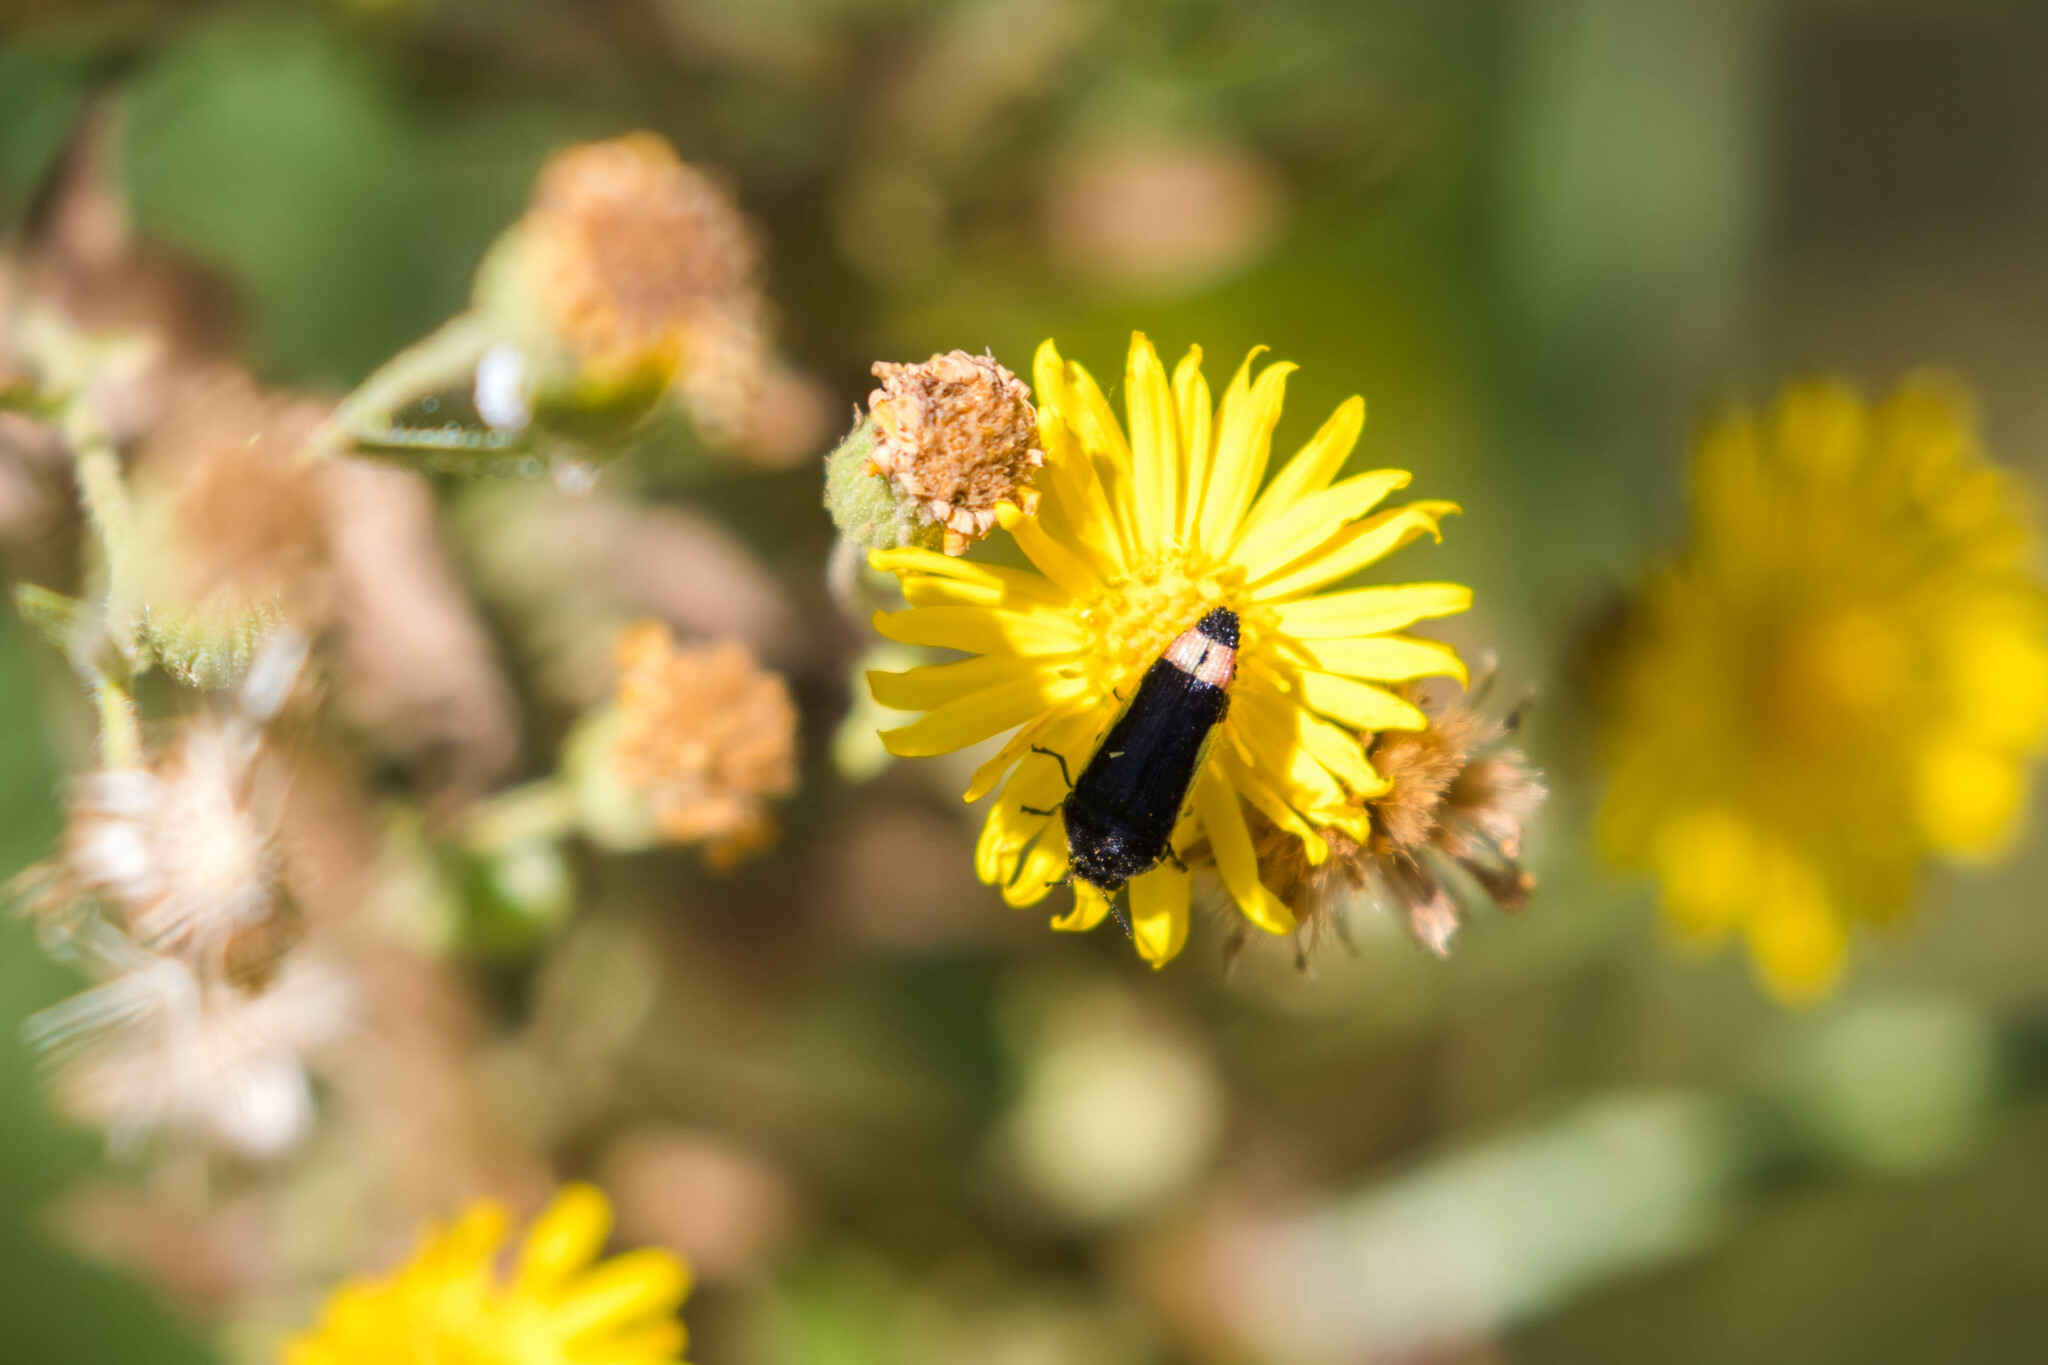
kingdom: Animalia
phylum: Arthropoda
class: Insecta
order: Coleoptera
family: Buprestidae
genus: Acmaeodera
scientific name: Acmaeodera flavomarginata
